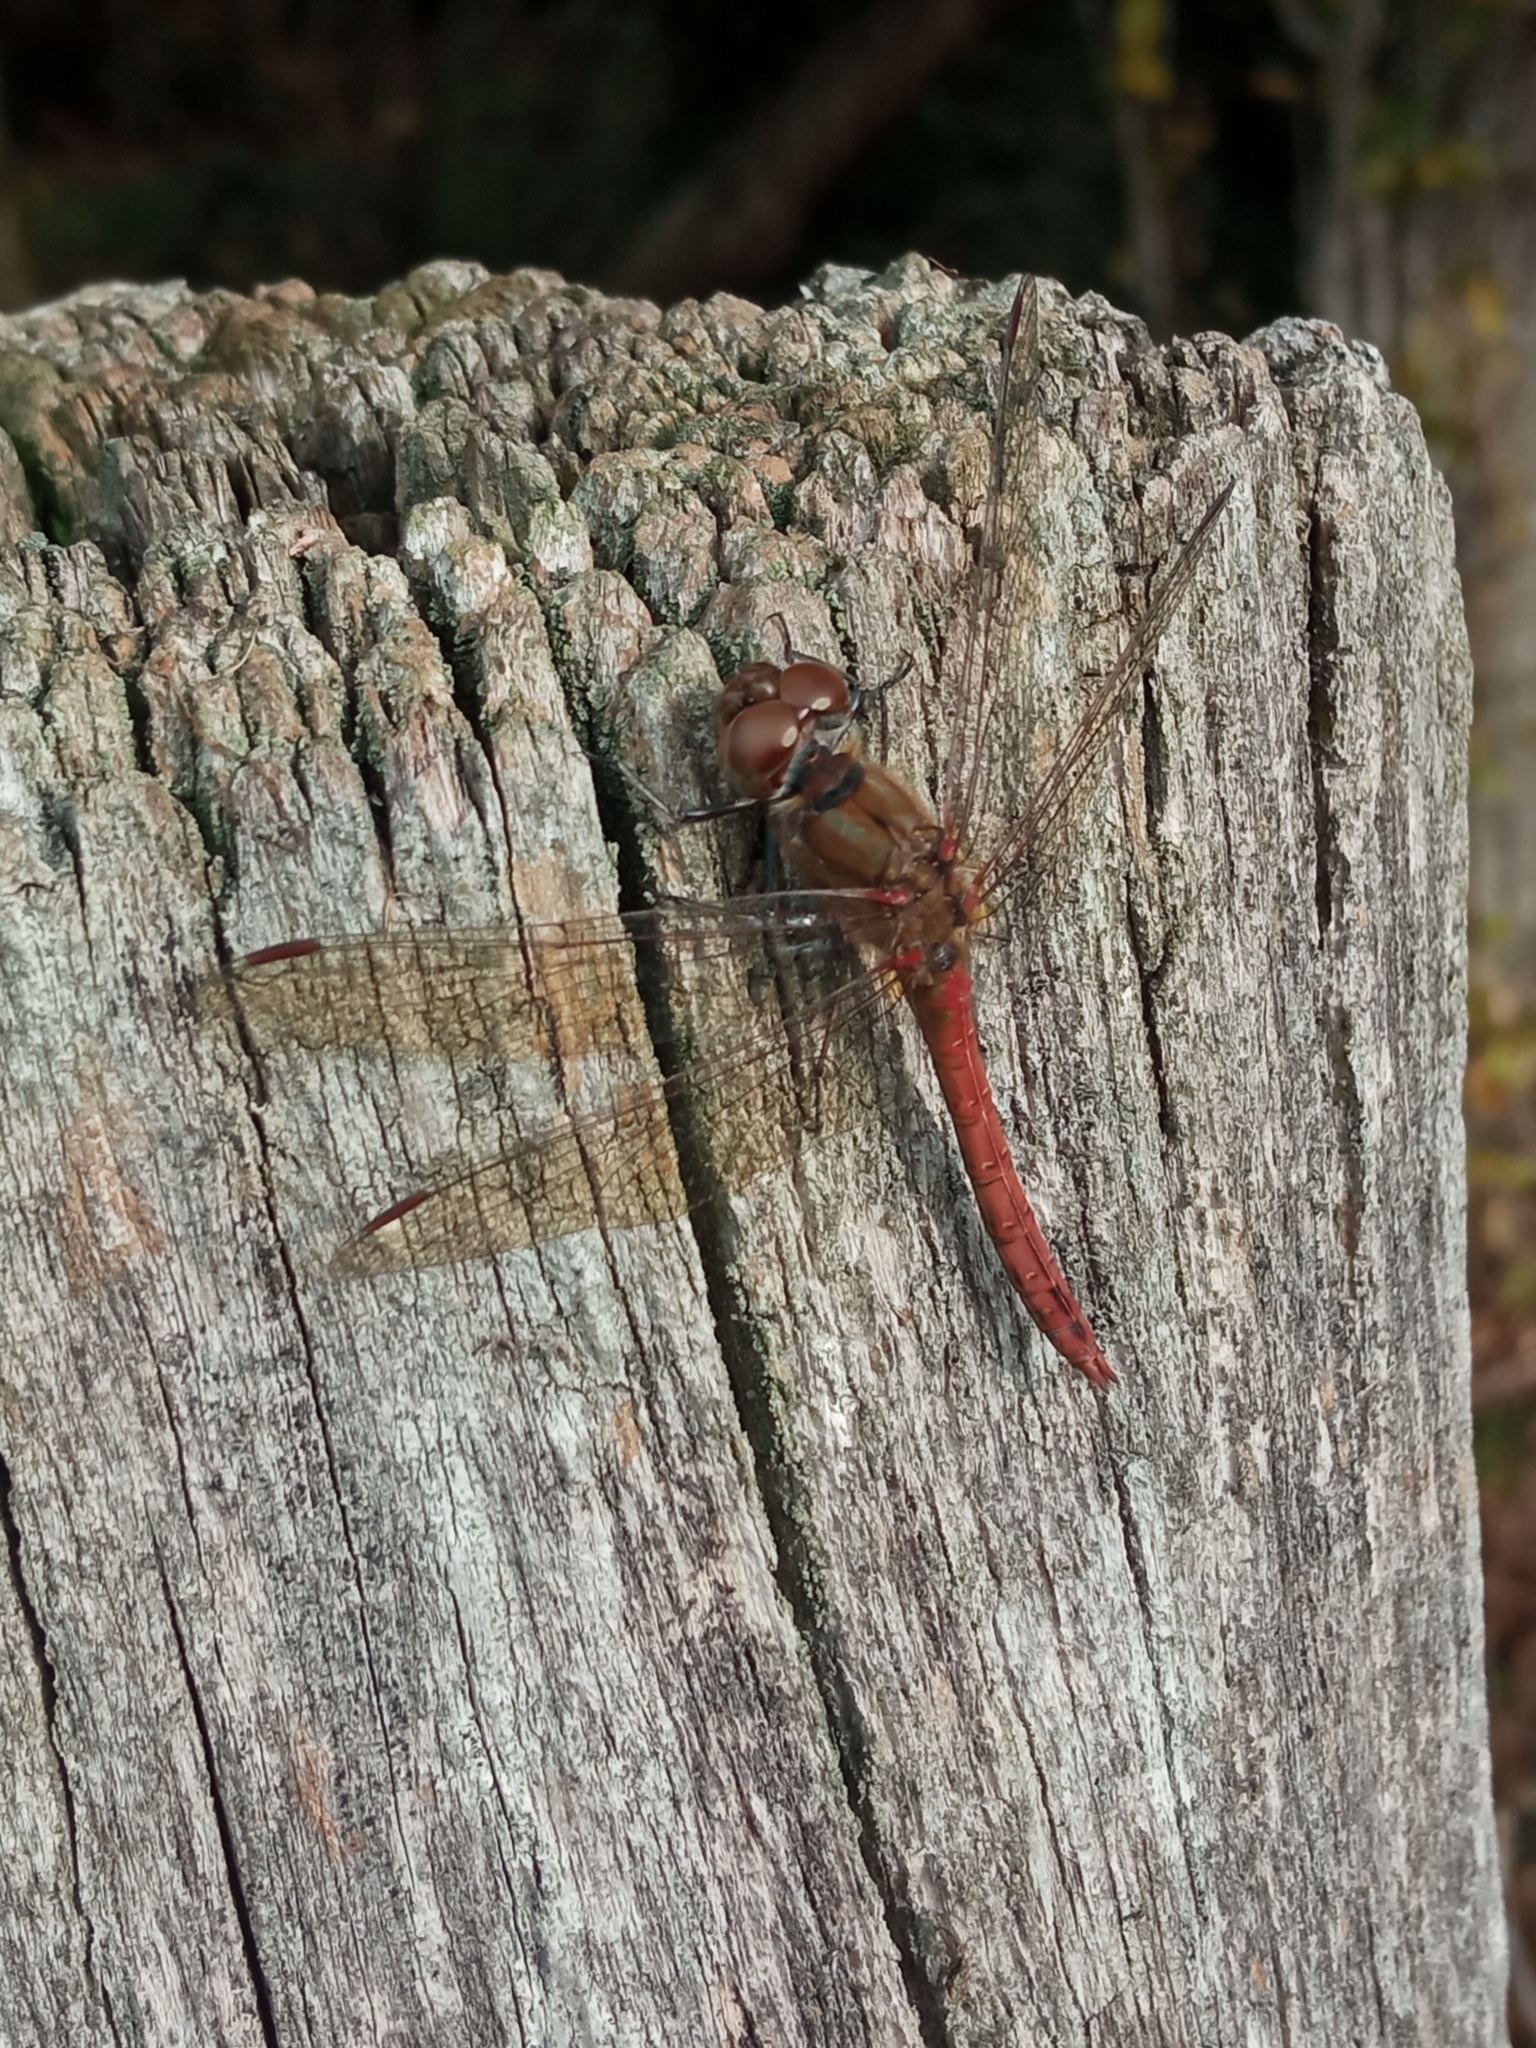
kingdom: Animalia
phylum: Arthropoda
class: Insecta
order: Odonata
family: Libellulidae
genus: Sympetrum
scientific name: Sympetrum striolatum
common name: Common darter
